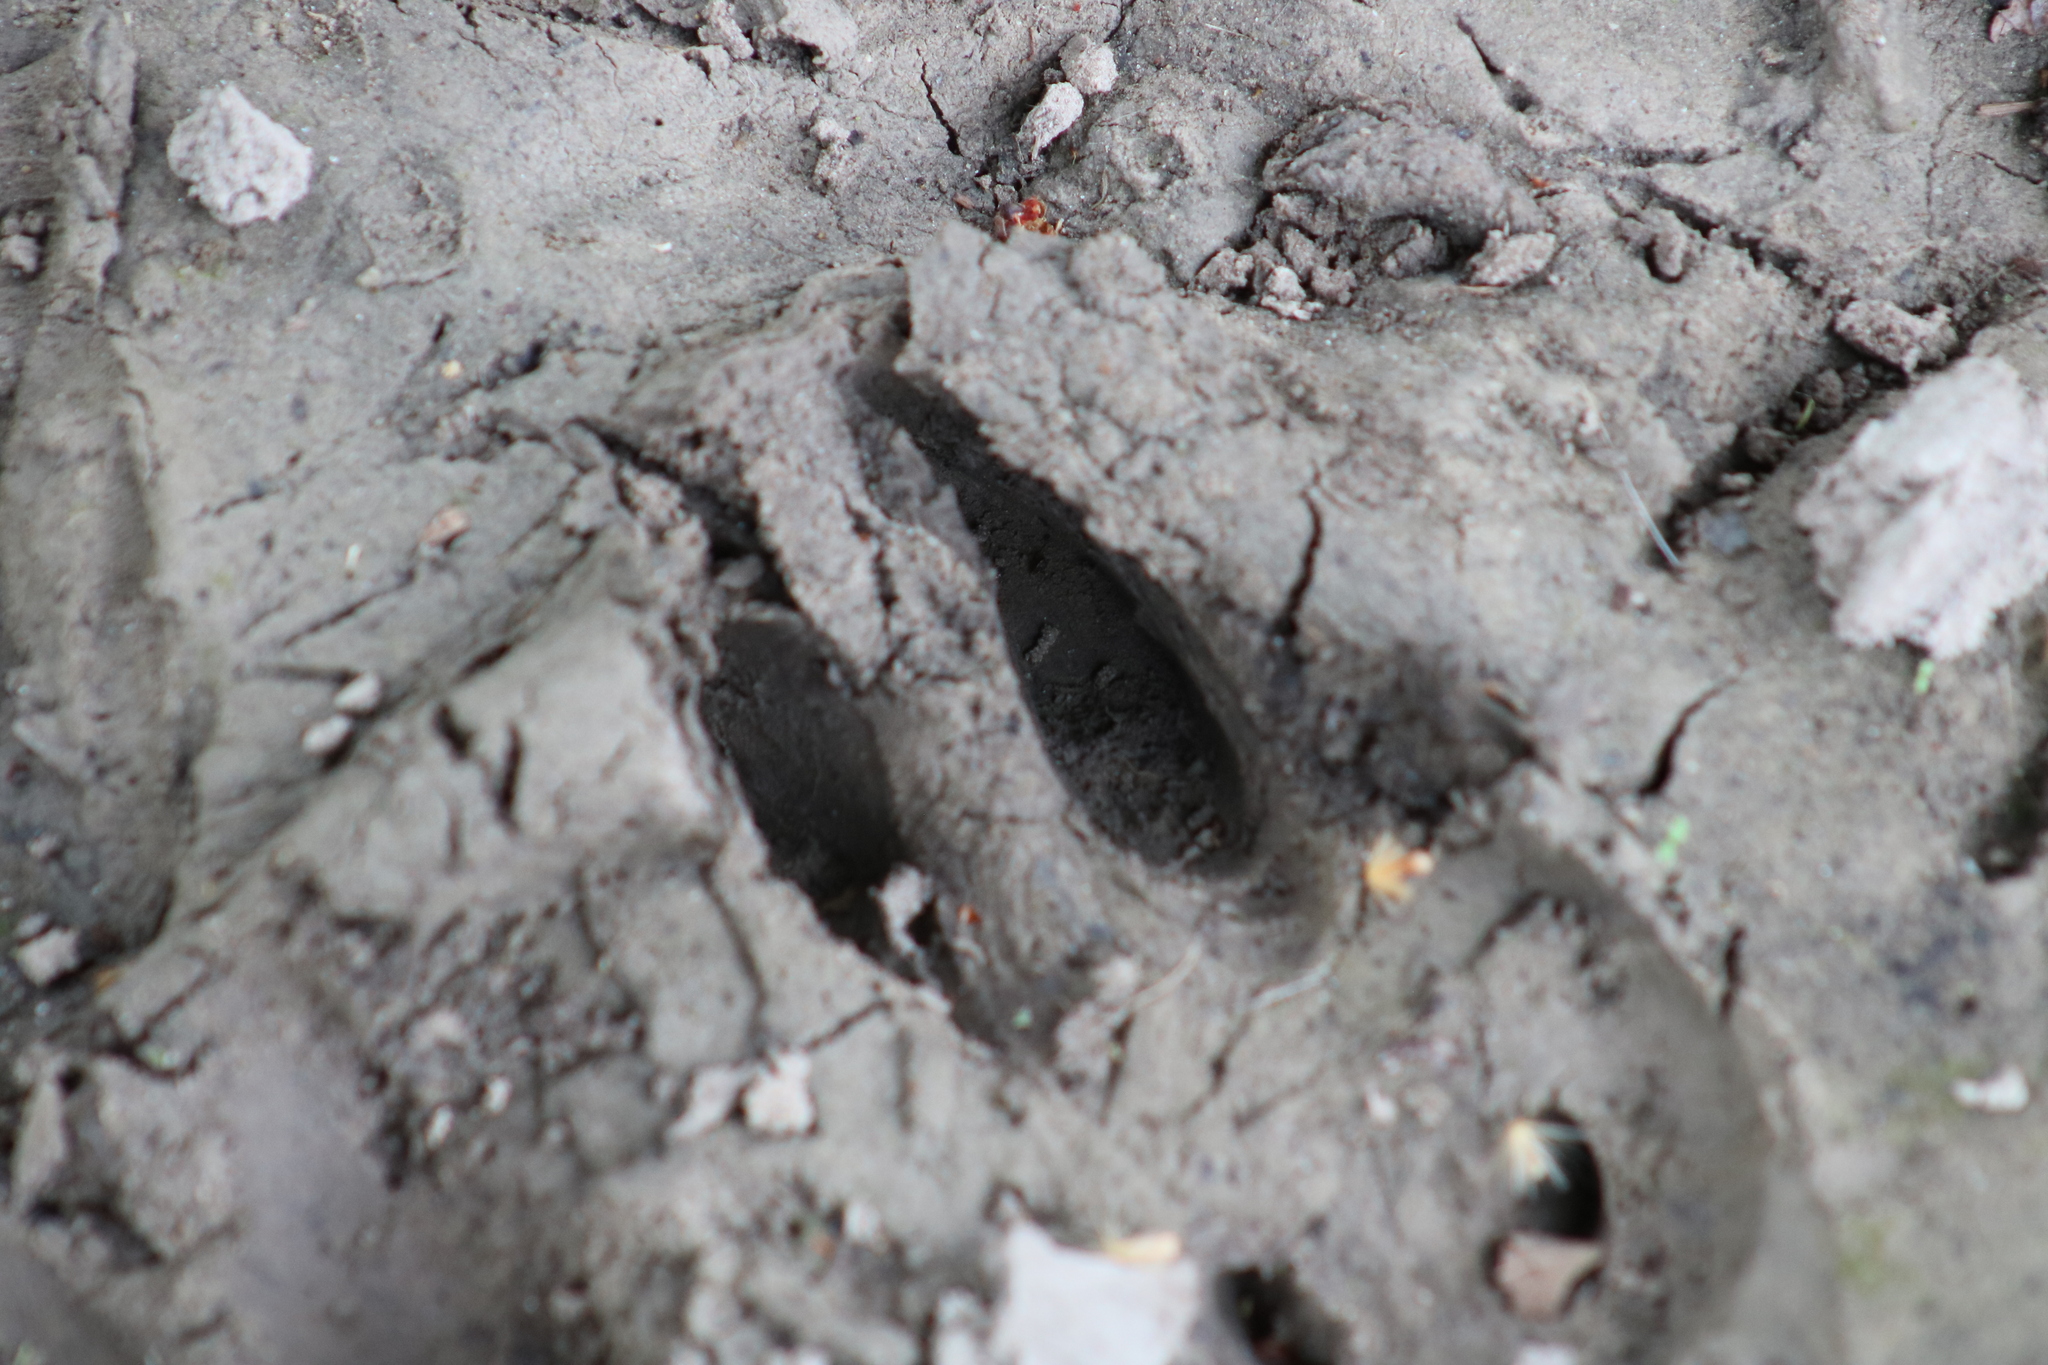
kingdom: Animalia
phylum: Chordata
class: Mammalia
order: Artiodactyla
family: Cervidae
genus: Odocoileus
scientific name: Odocoileus virginianus
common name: White-tailed deer
